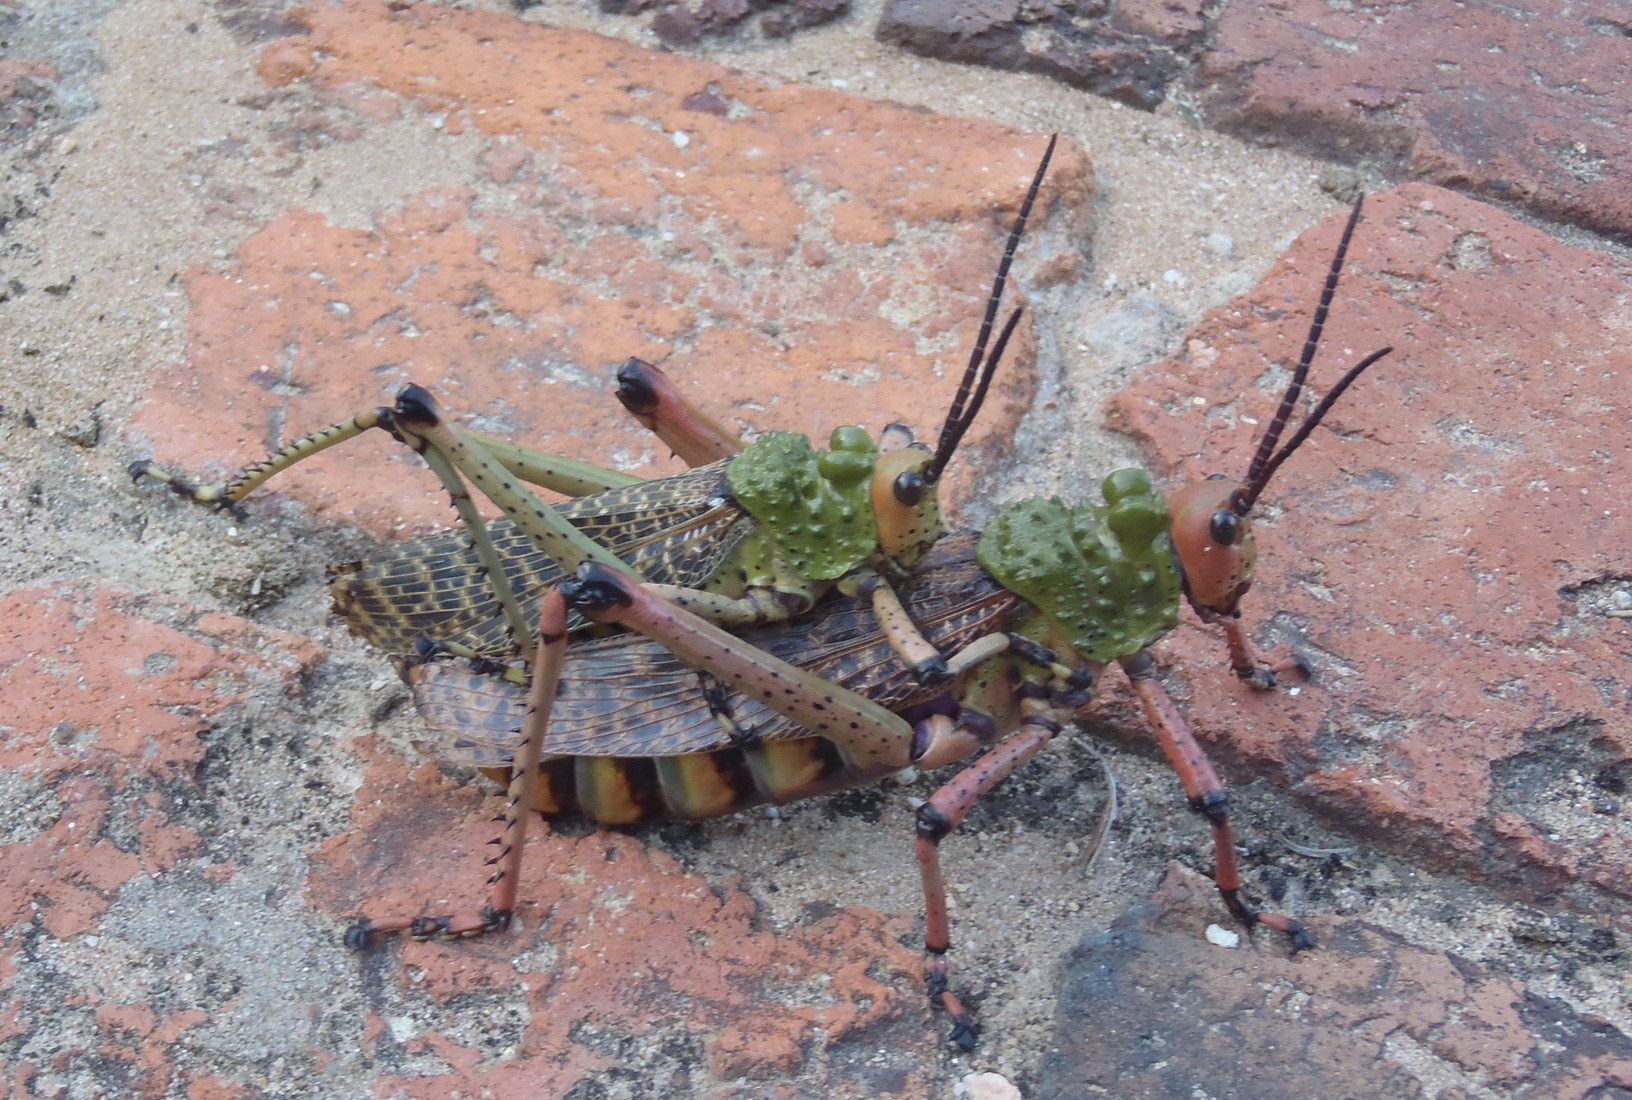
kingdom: Animalia
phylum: Arthropoda
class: Insecta
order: Orthoptera
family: Pyrgomorphidae
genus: Phymateus
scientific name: Phymateus leprosus
